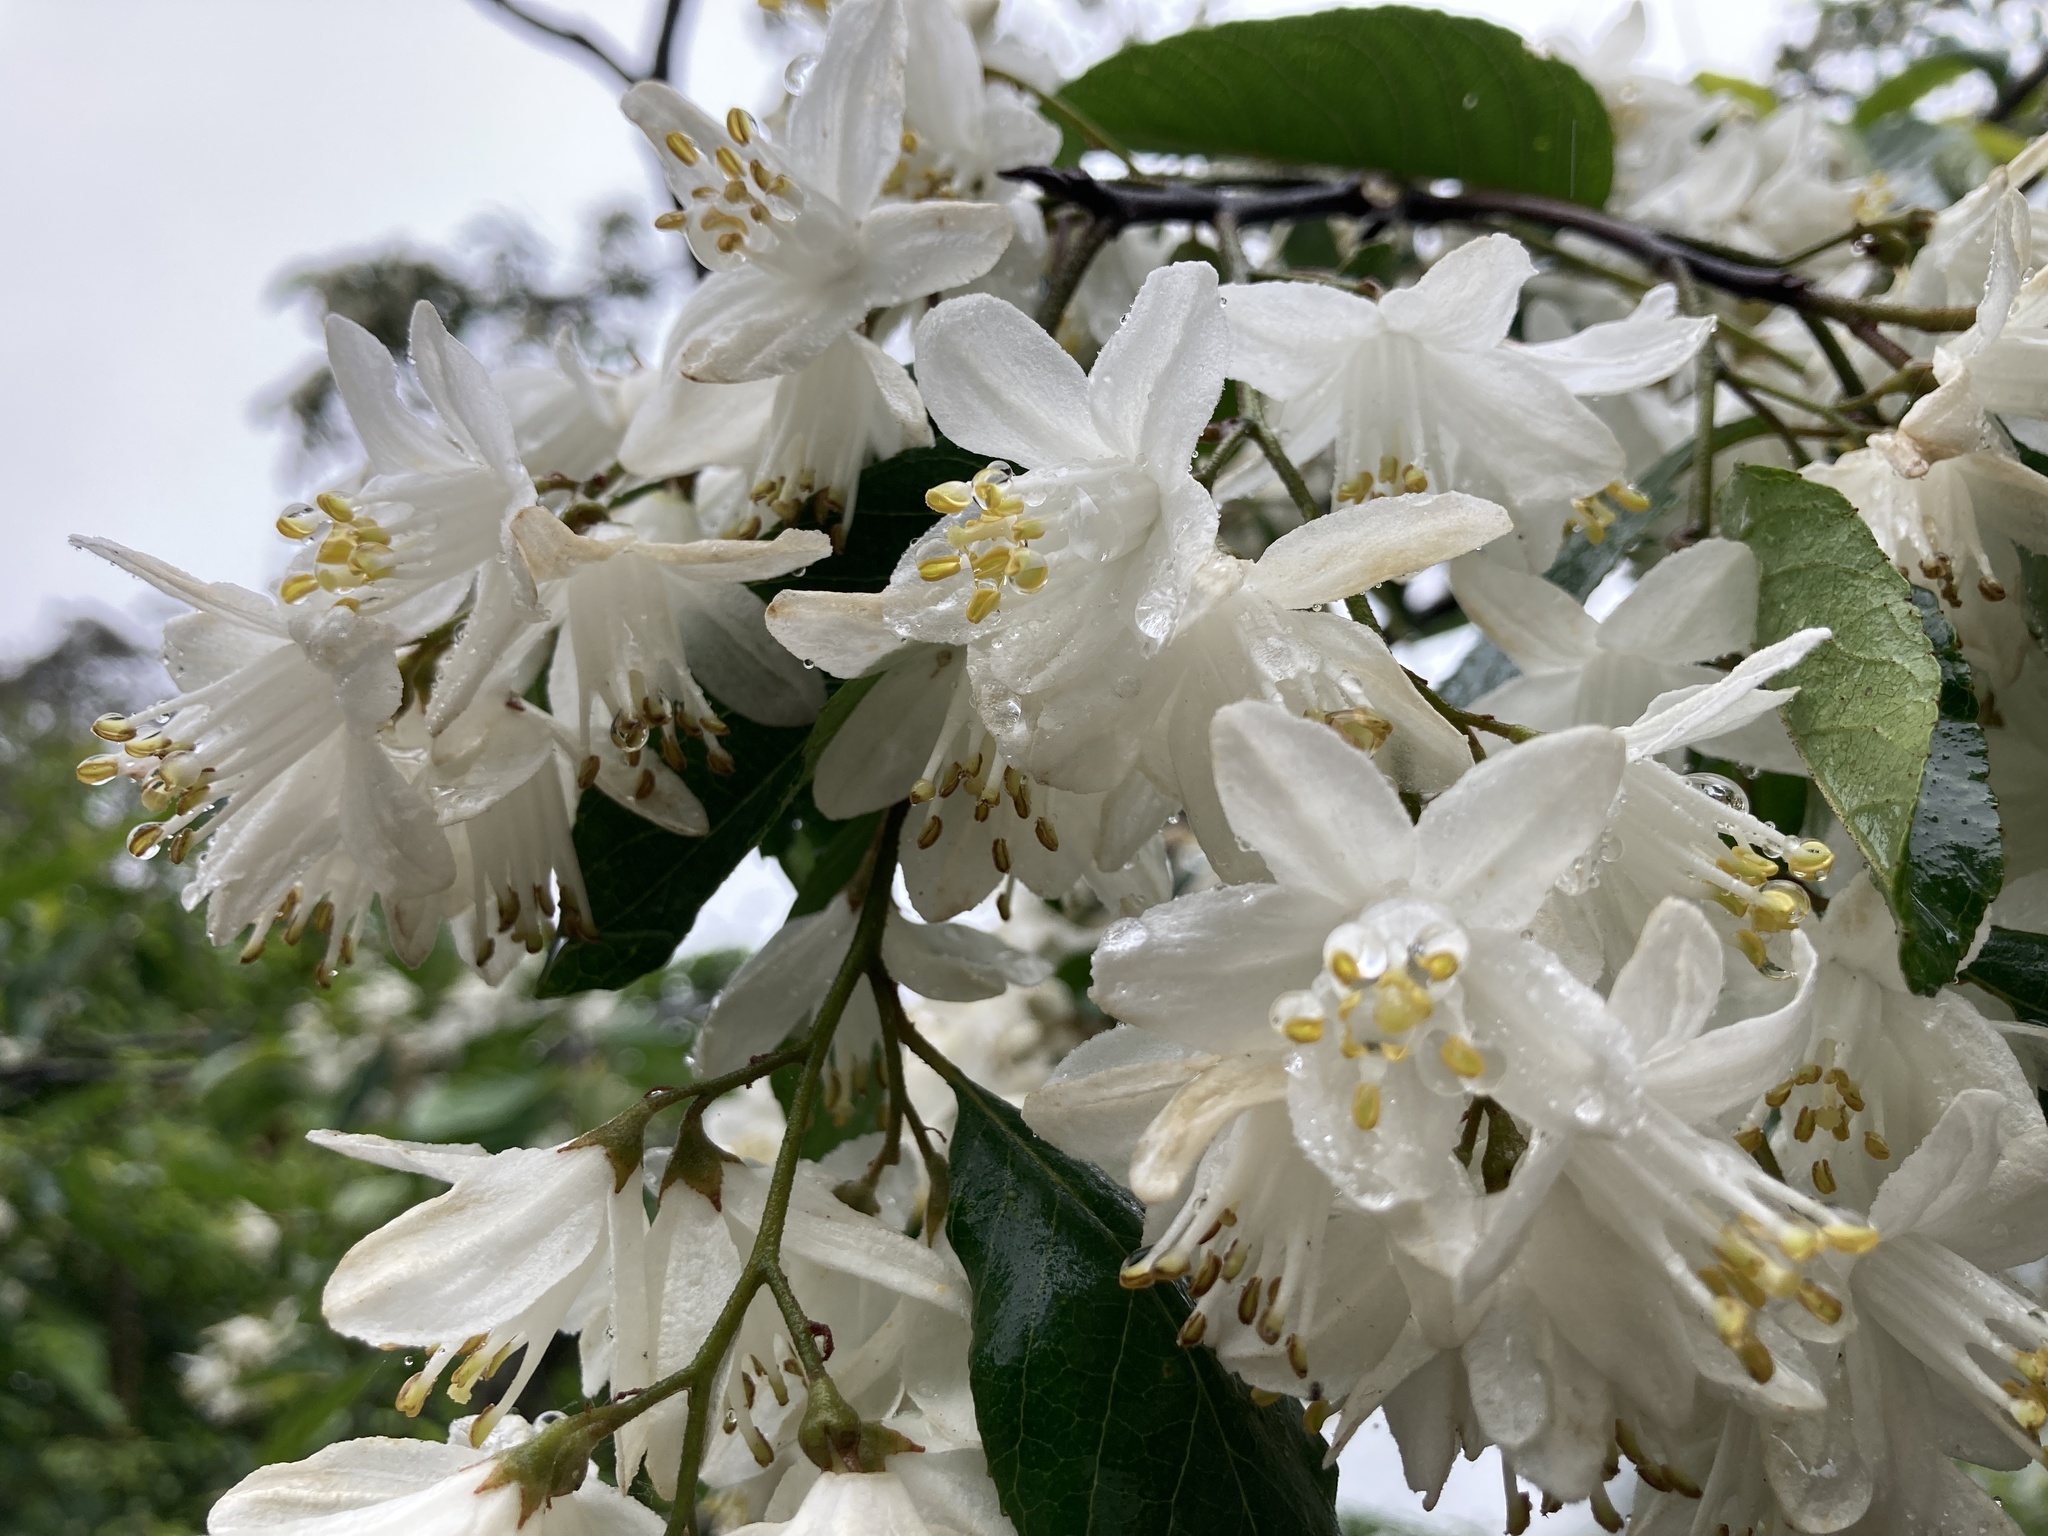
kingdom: Plantae
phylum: Tracheophyta
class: Magnoliopsida
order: Cornales
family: Hydrangeaceae
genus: Deutzia
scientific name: Deutzia pulchra
